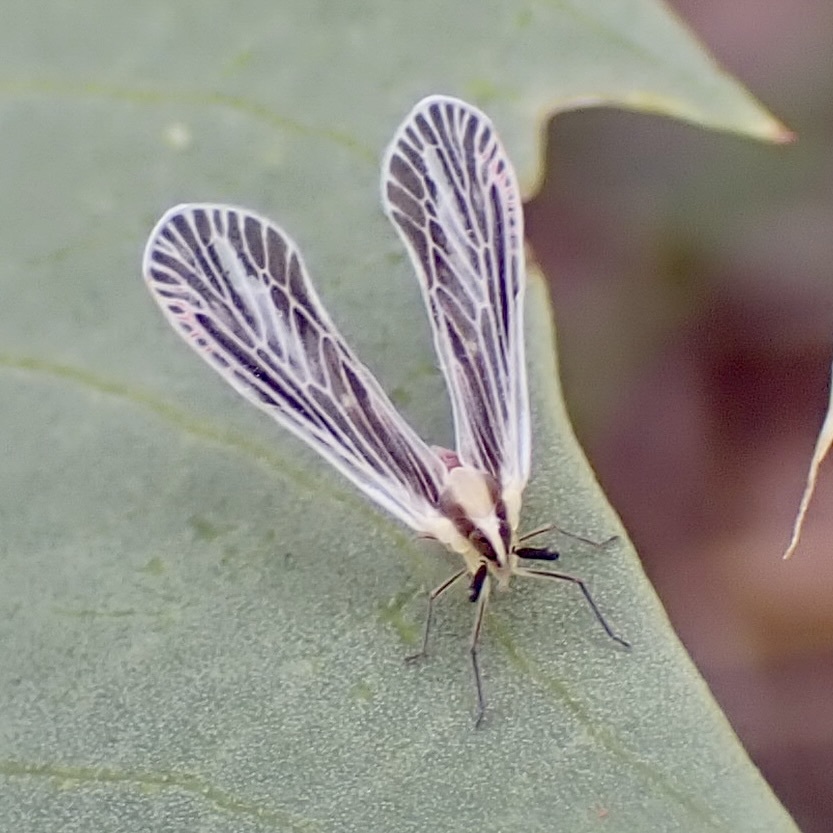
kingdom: Animalia
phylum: Arthropoda
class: Insecta
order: Hemiptera
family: Derbidae
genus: Anotia
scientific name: Anotia lineata
